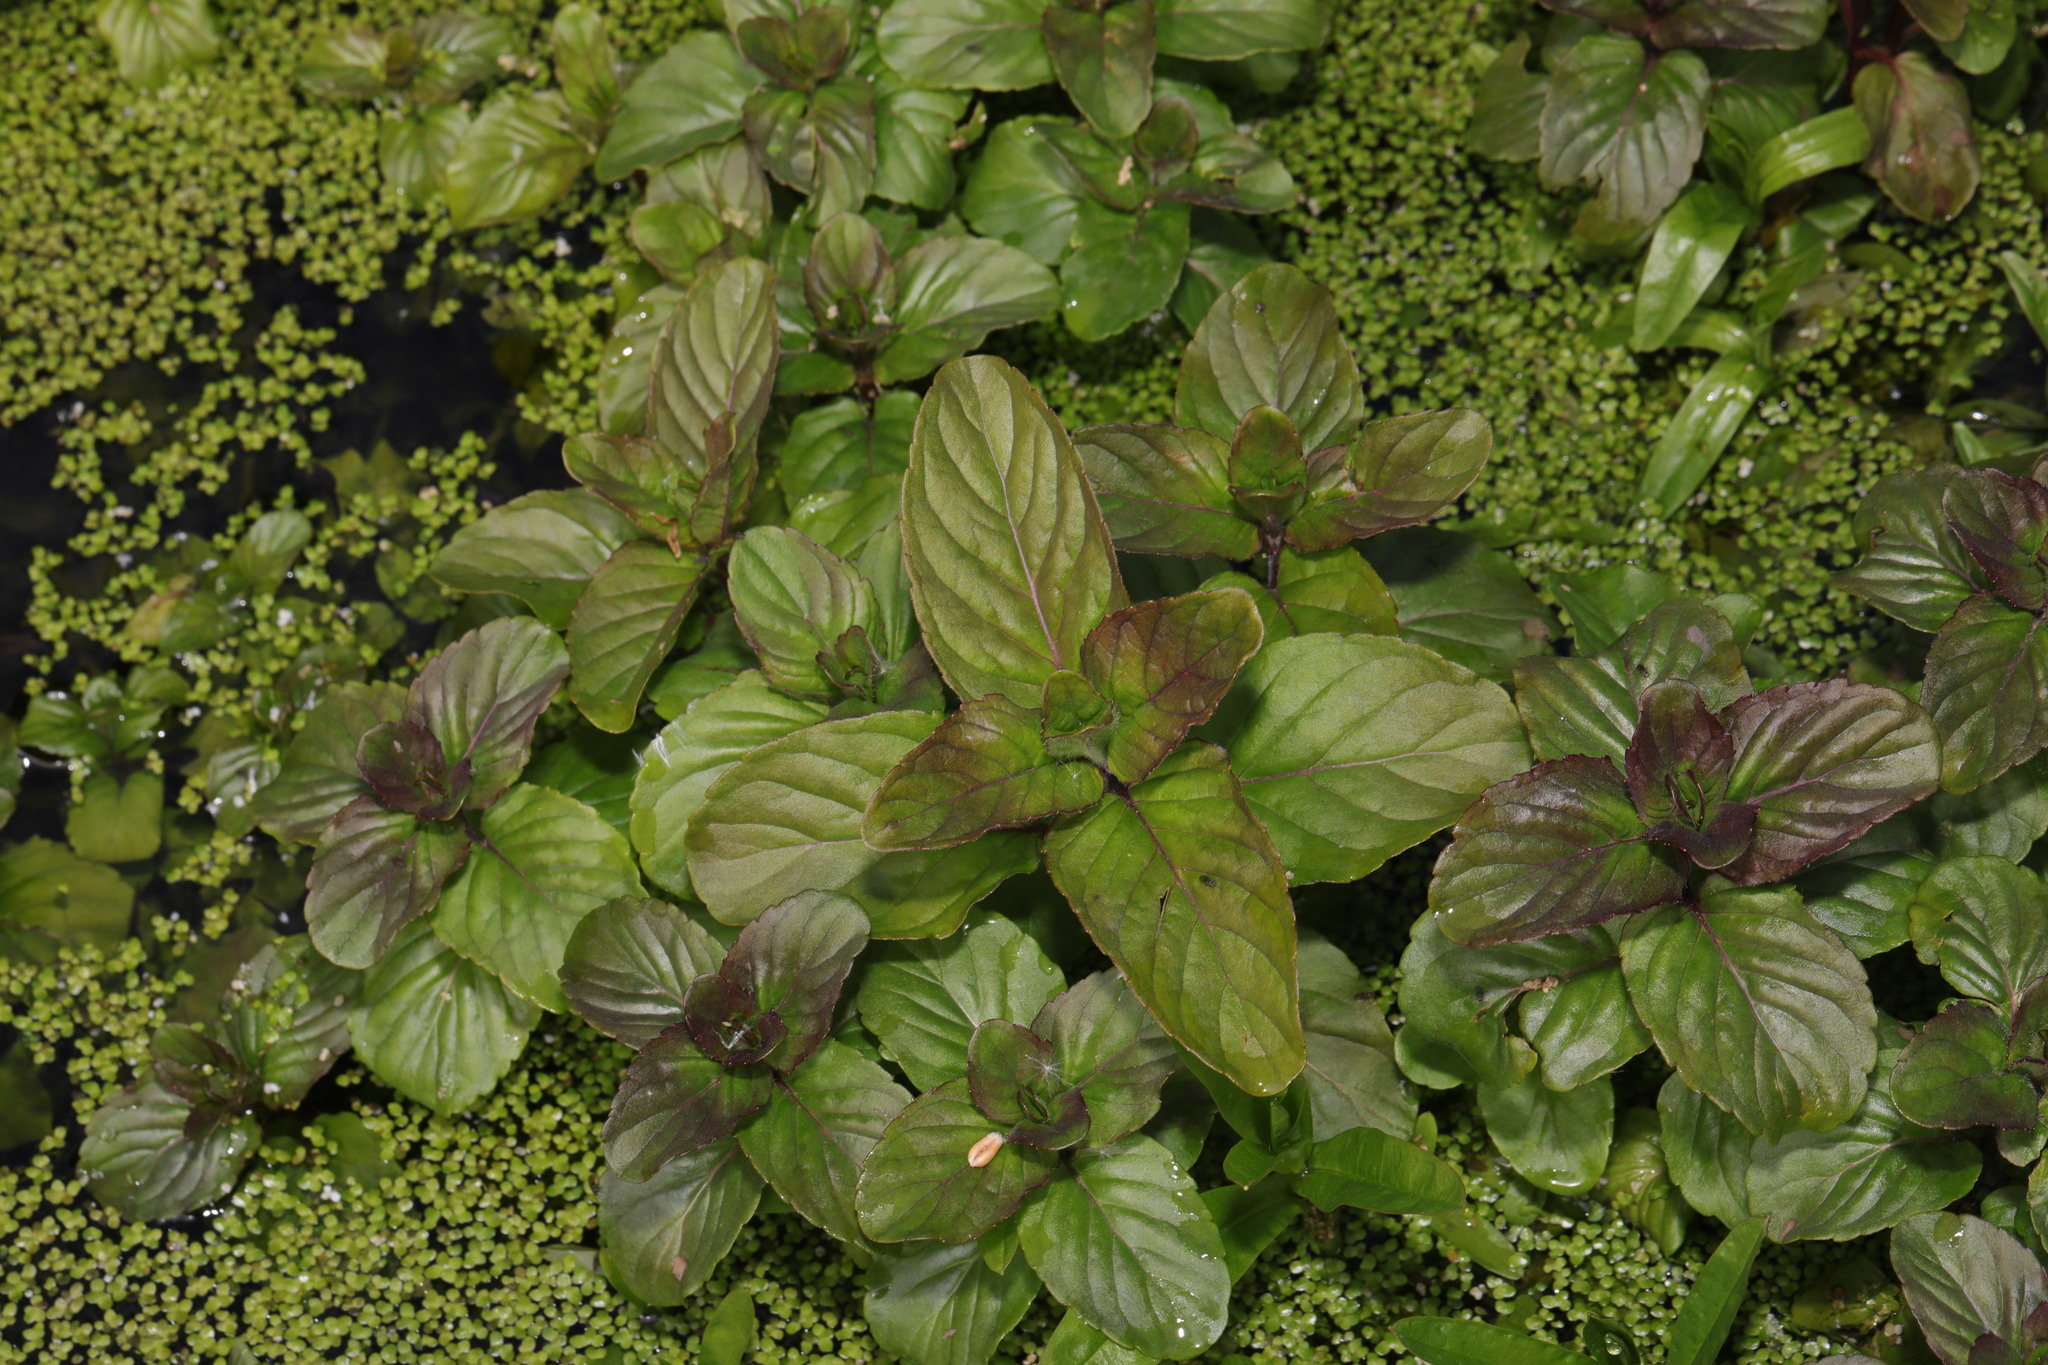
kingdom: Plantae
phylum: Tracheophyta
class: Magnoliopsida
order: Lamiales
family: Lamiaceae
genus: Mentha
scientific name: Mentha aquatica
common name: Water mint
